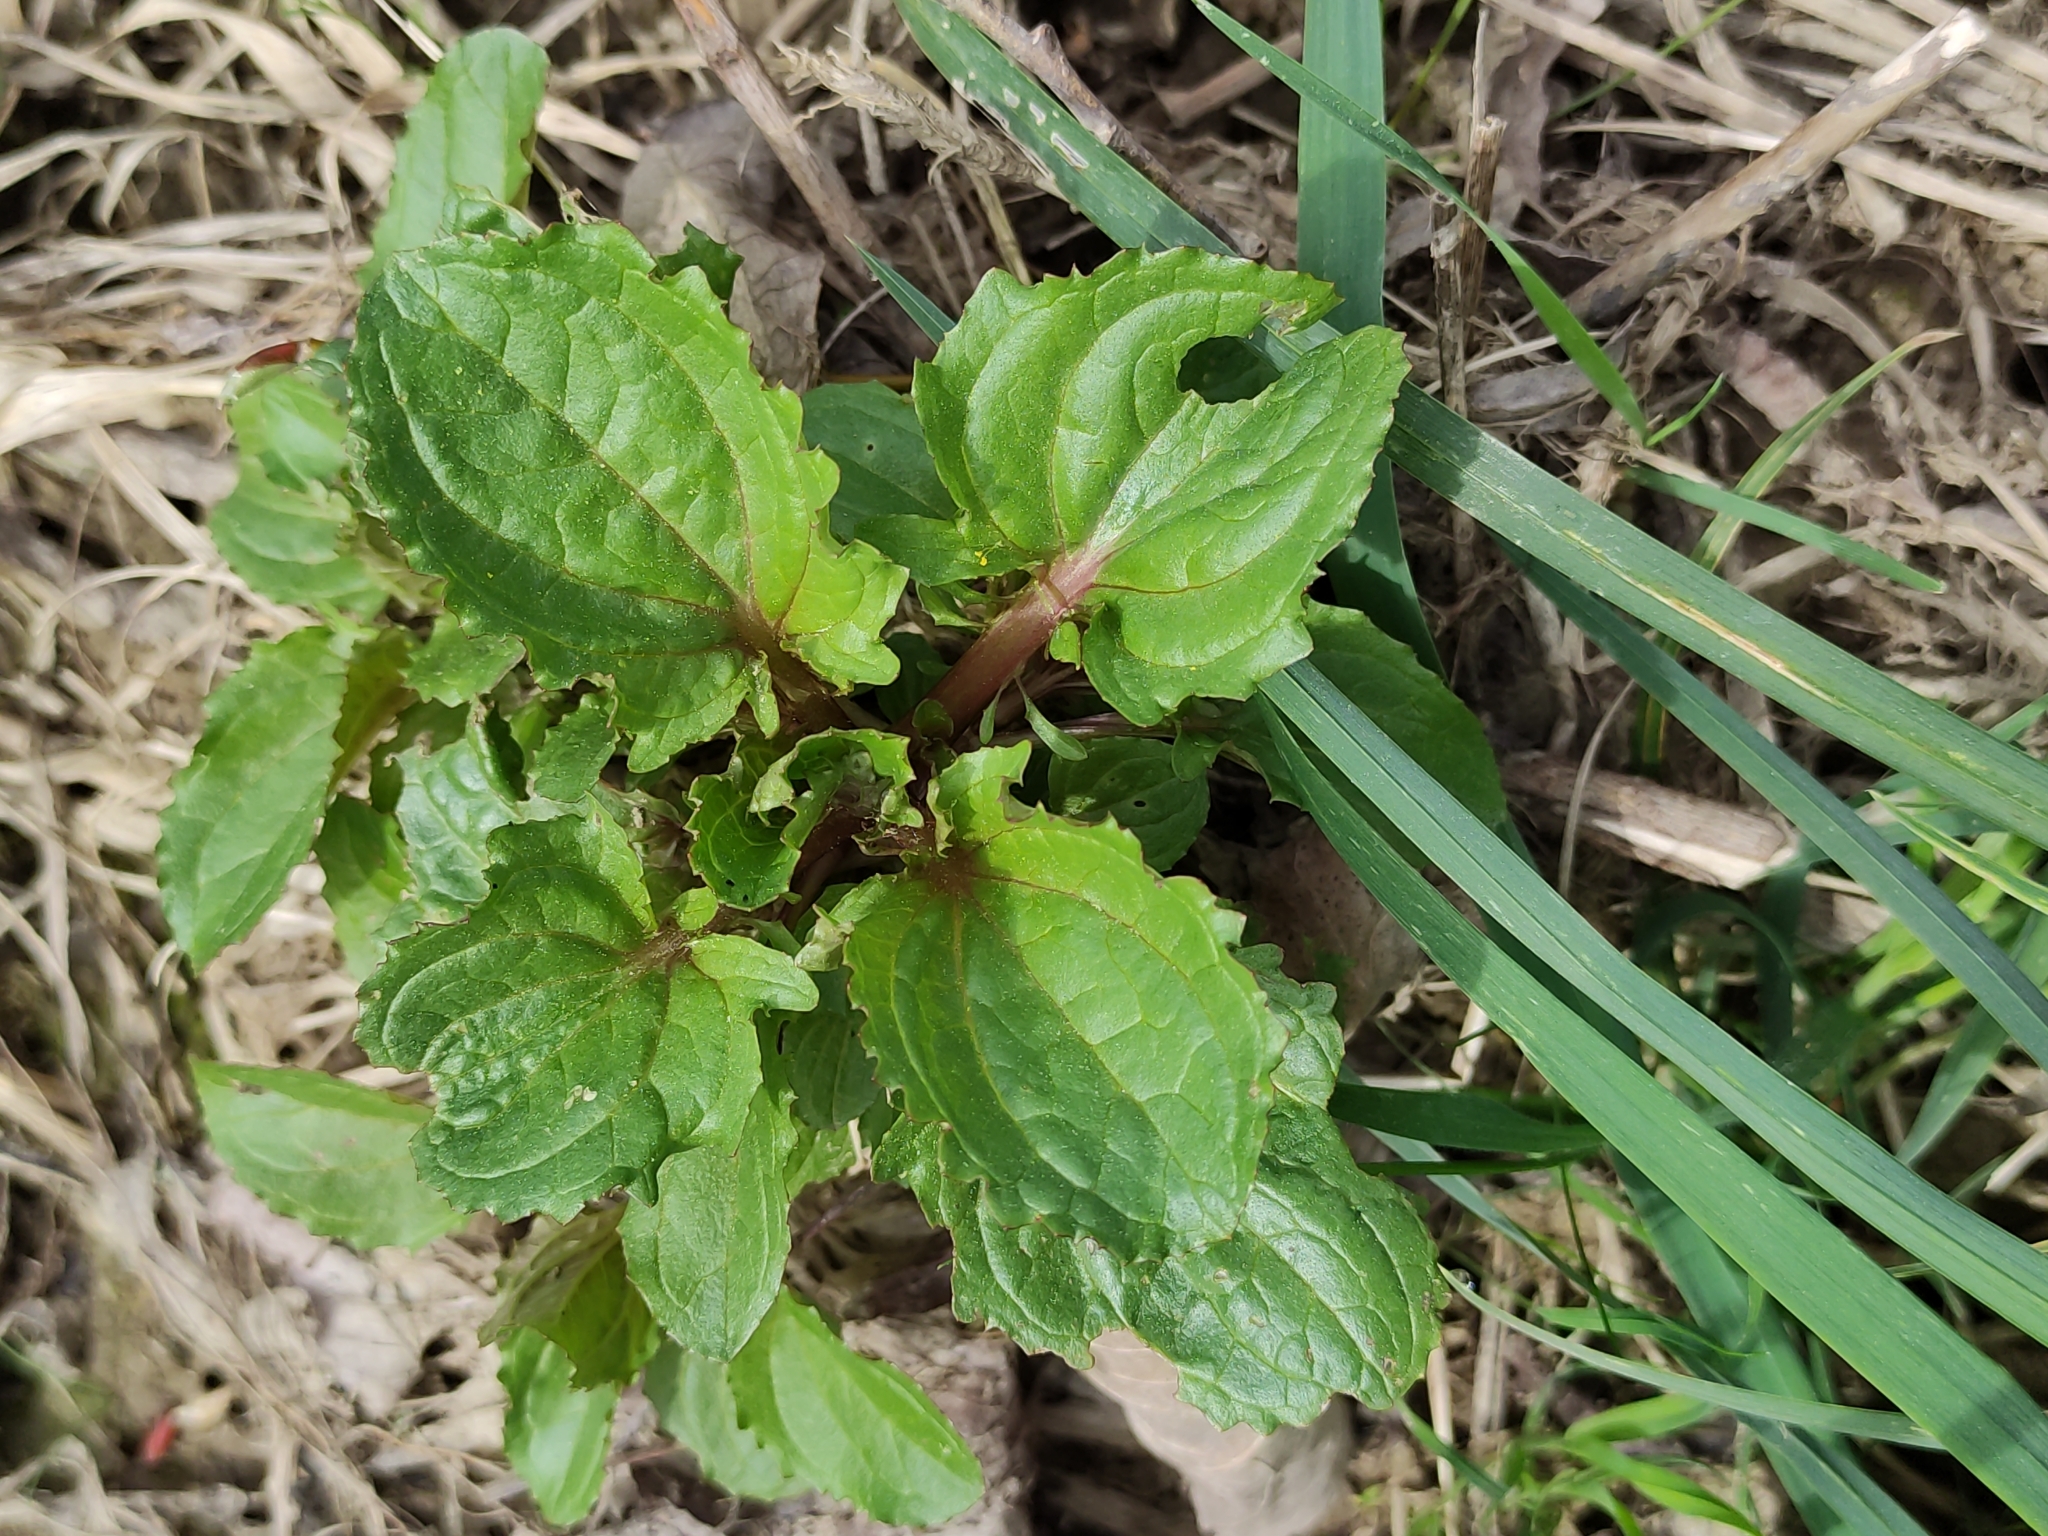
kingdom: Plantae
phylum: Tracheophyta
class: Magnoliopsida
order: Lamiales
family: Phrymaceae
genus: Erythranthe
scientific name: Erythranthe guttata
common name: Monkeyflower
